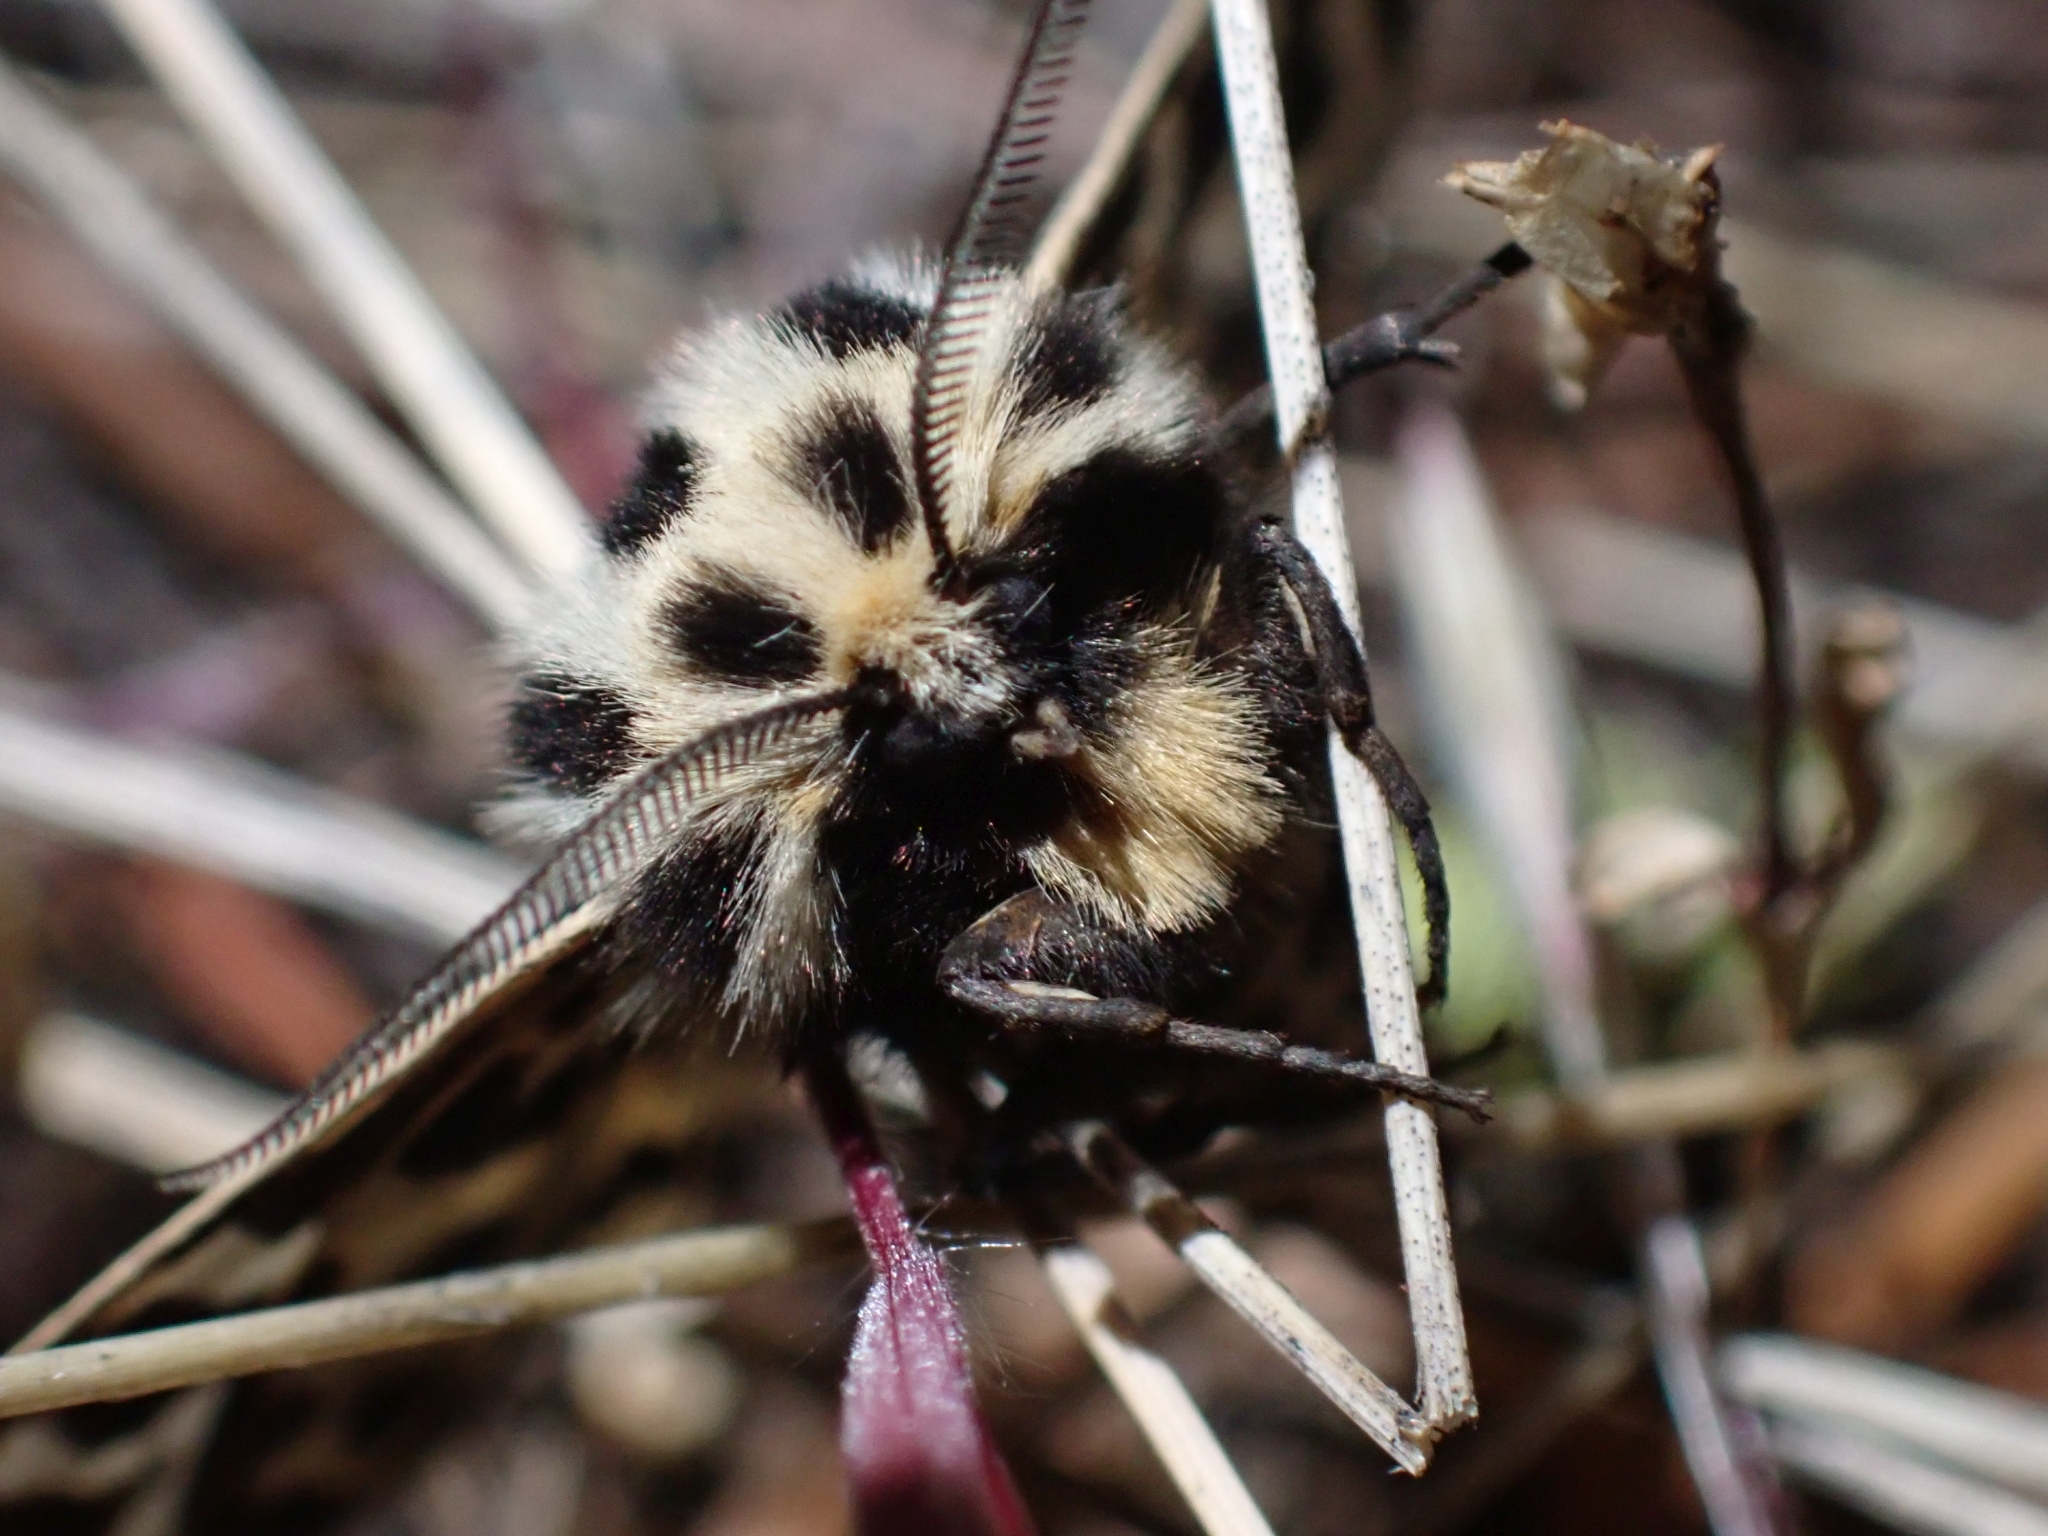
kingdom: Animalia
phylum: Arthropoda
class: Insecta
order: Lepidoptera
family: Erebidae
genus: Apantesis
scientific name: Apantesis
